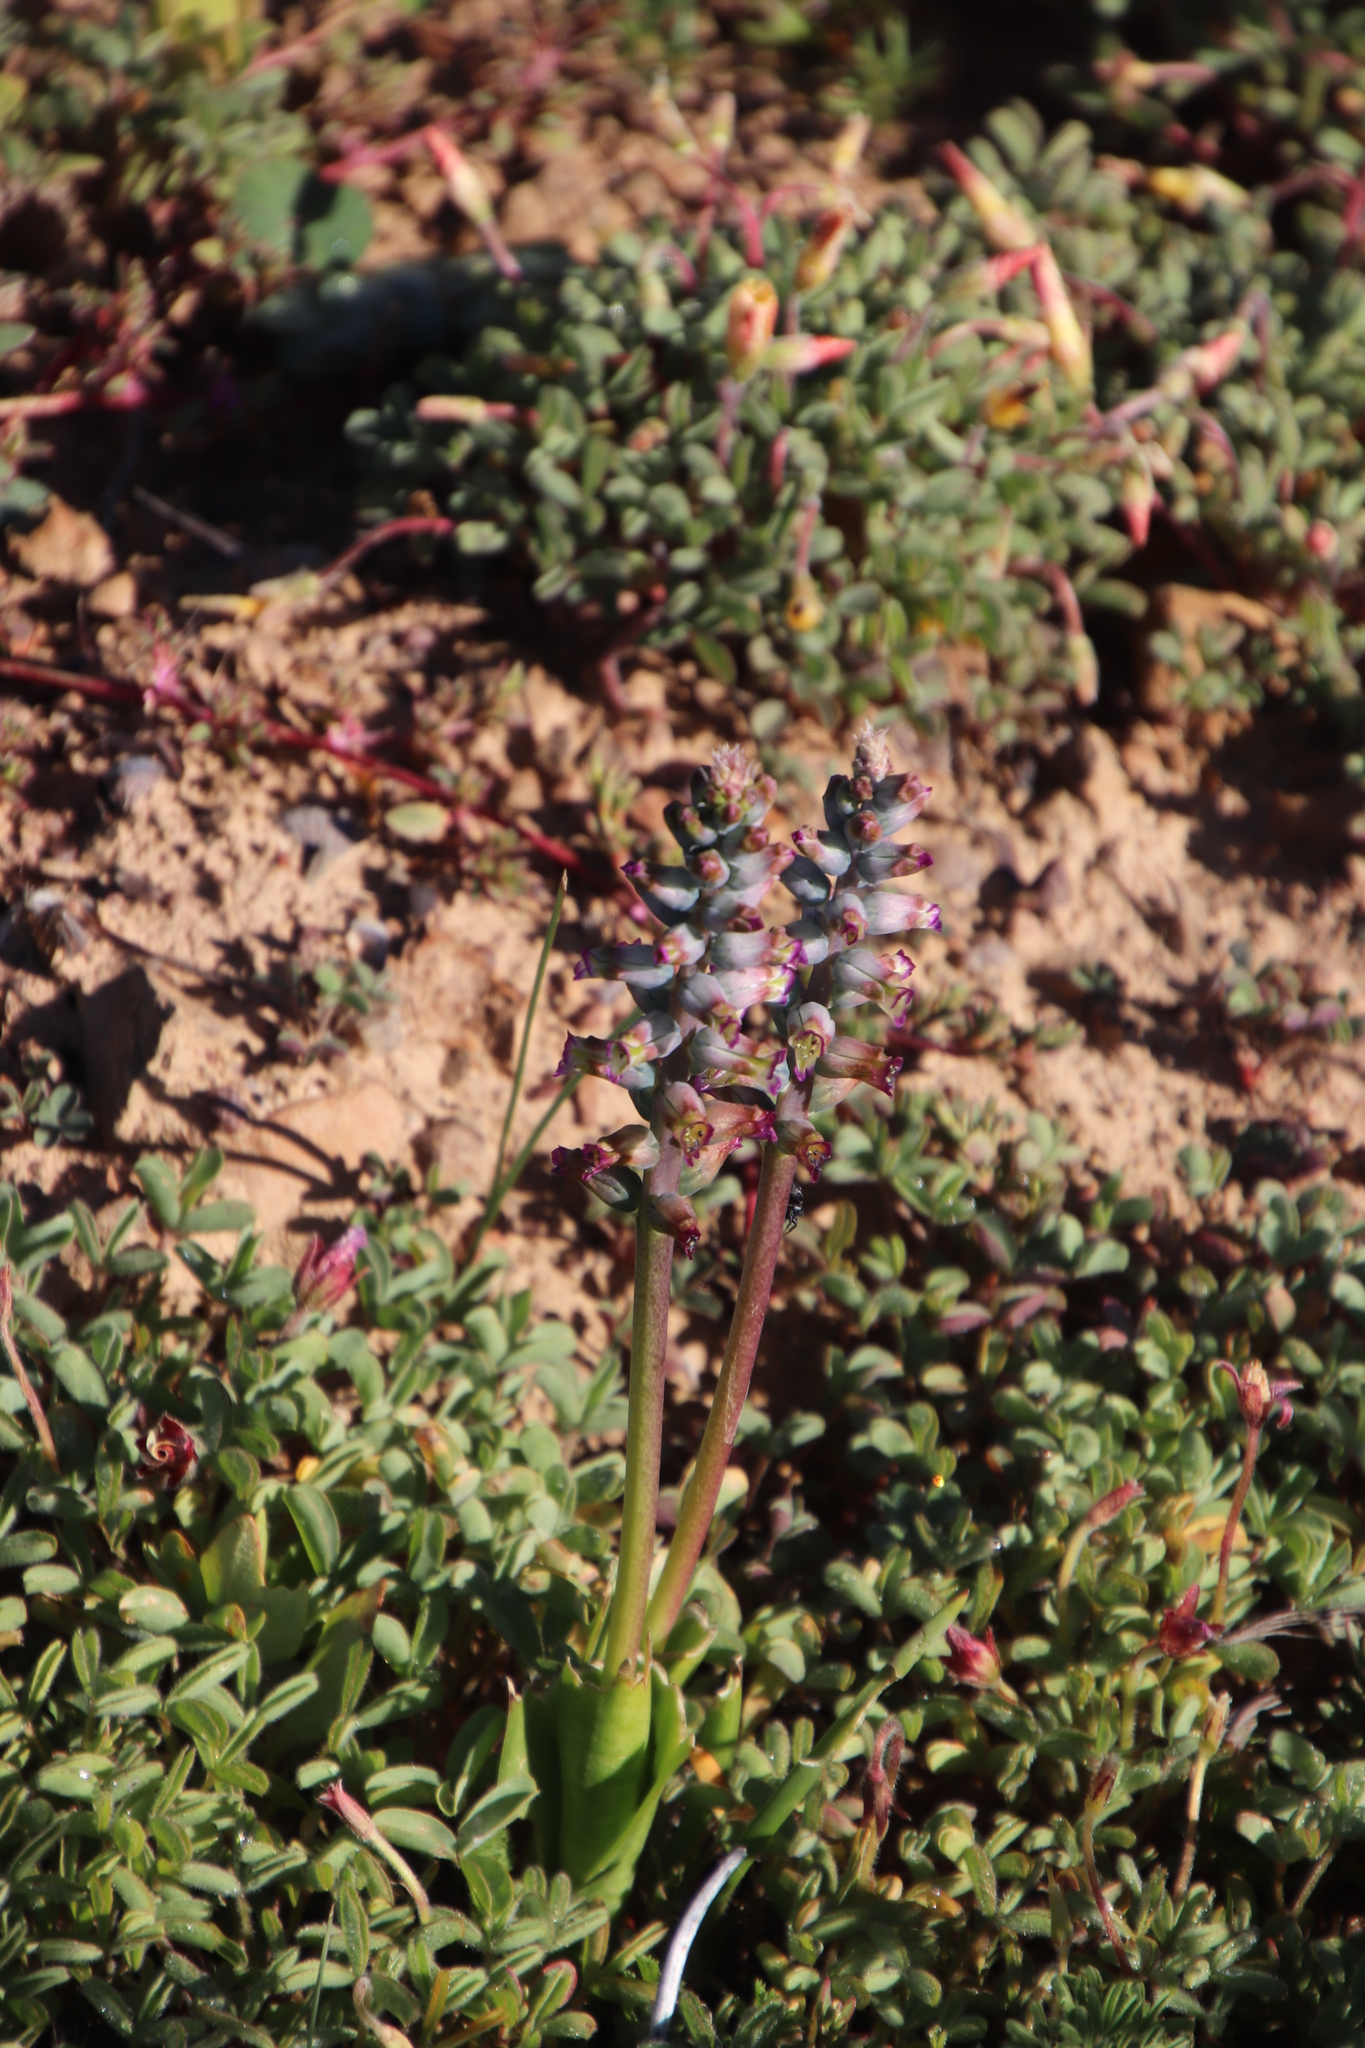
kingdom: Plantae
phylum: Tracheophyta
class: Liliopsida
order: Asparagales
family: Asparagaceae
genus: Lachenalia
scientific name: Lachenalia obscura
